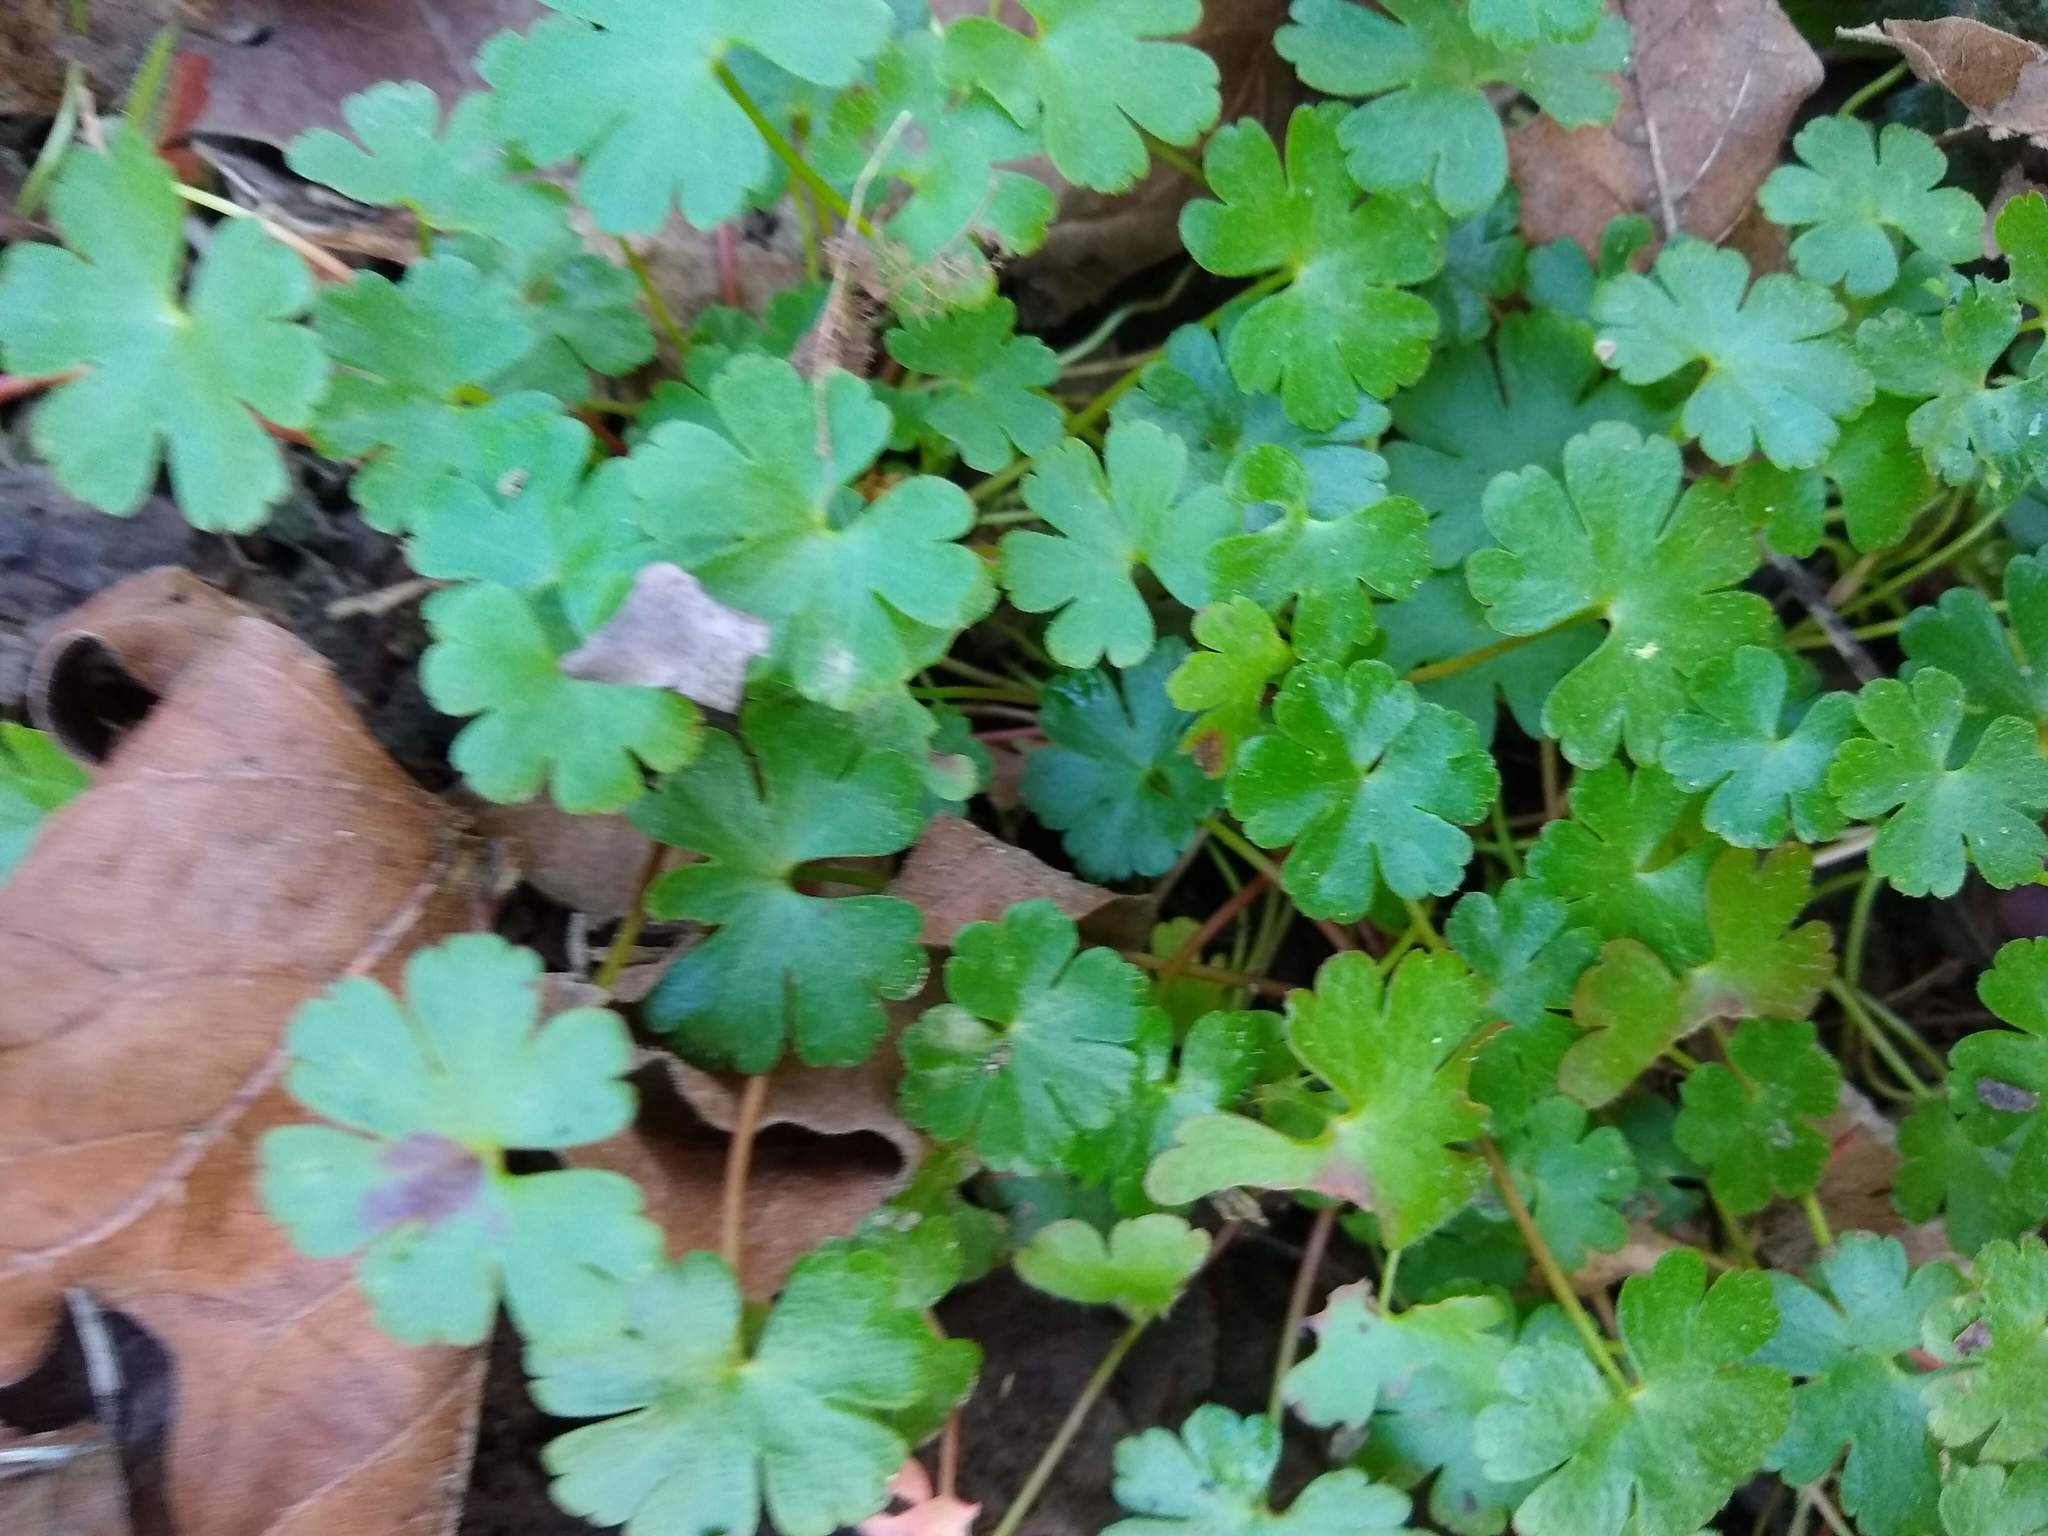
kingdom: Plantae
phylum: Tracheophyta
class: Magnoliopsida
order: Geraniales
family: Geraniaceae
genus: Geranium
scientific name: Geranium lucidum
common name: Shining crane's-bill
